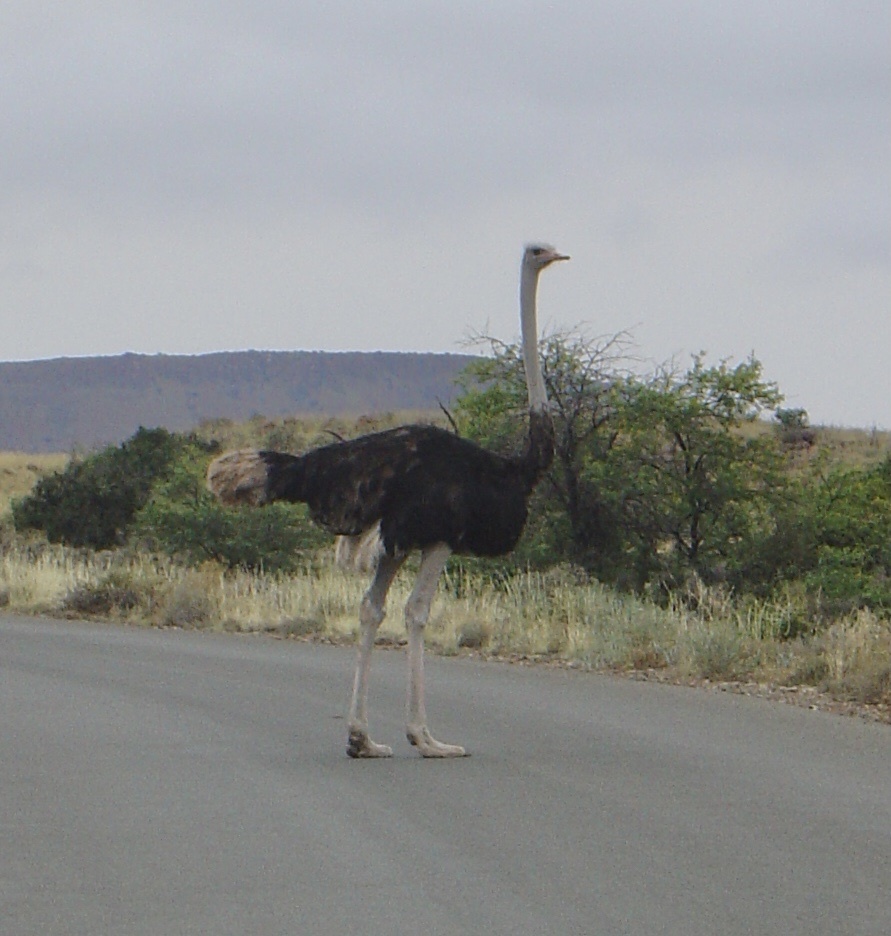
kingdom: Animalia
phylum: Chordata
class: Aves
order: Struthioniformes
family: Struthionidae
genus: Struthio
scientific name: Struthio camelus
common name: Common ostrich
